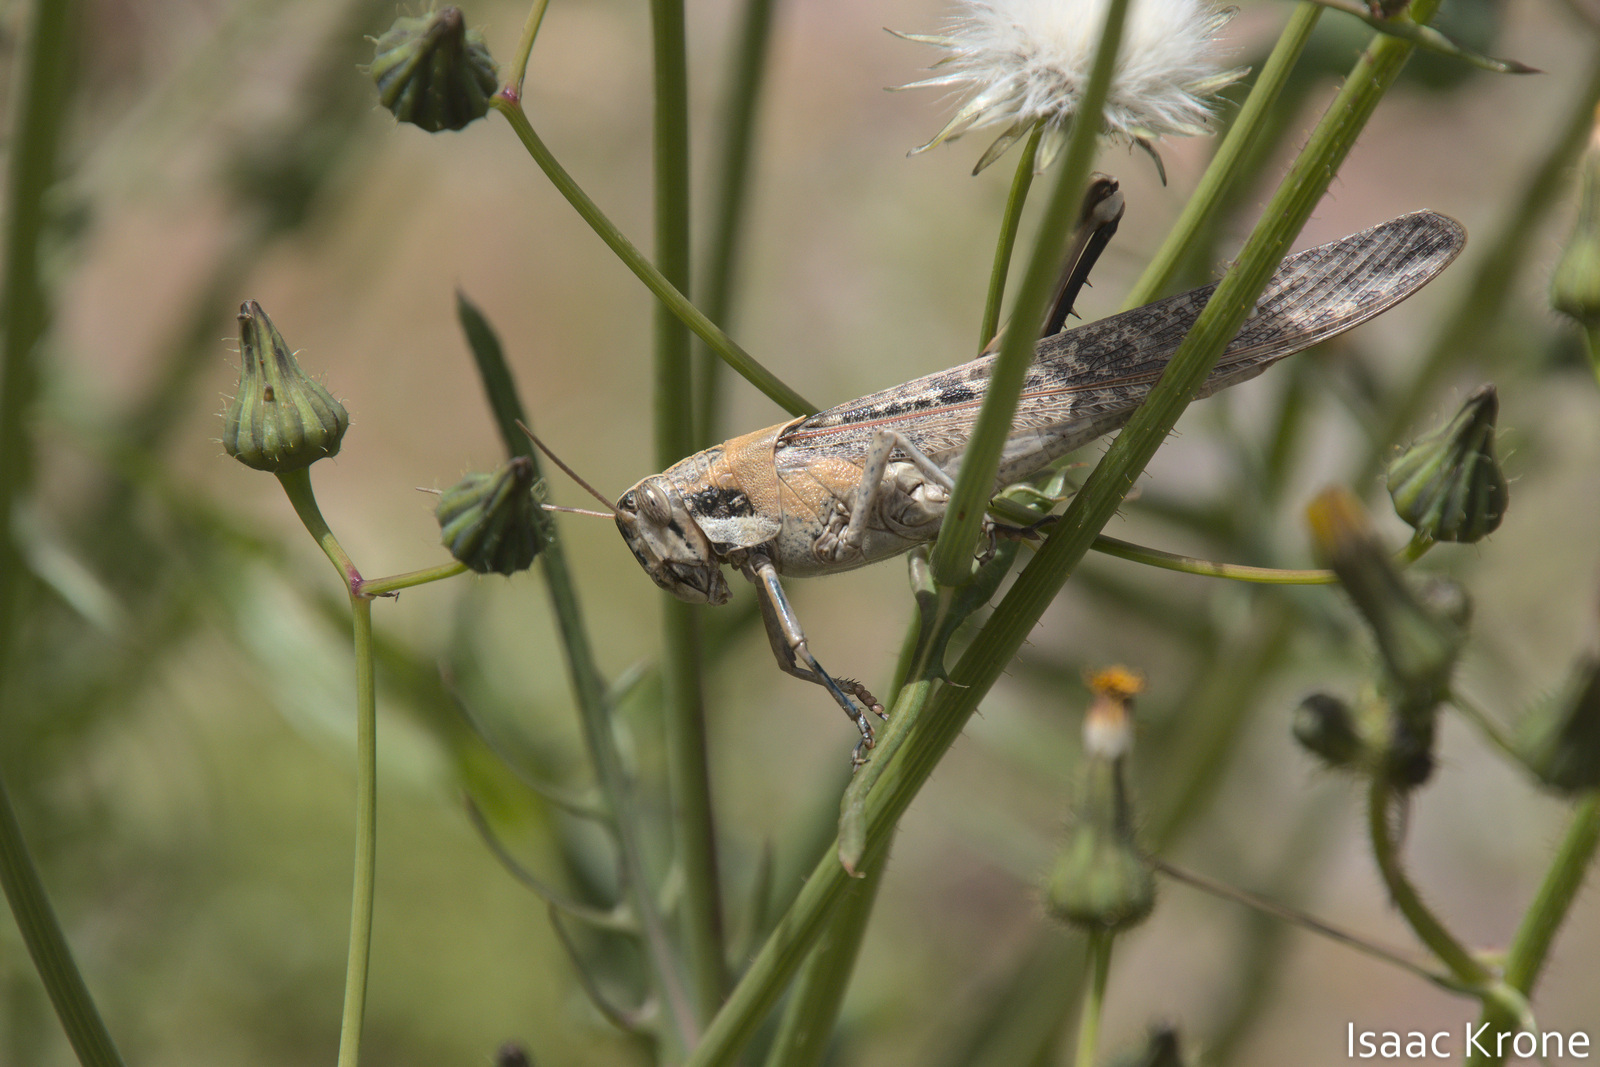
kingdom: Animalia
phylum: Arthropoda
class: Insecta
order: Orthoptera
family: Acrididae
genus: Schistocerca
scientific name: Schistocerca nitens
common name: Vagrant grasshopper
